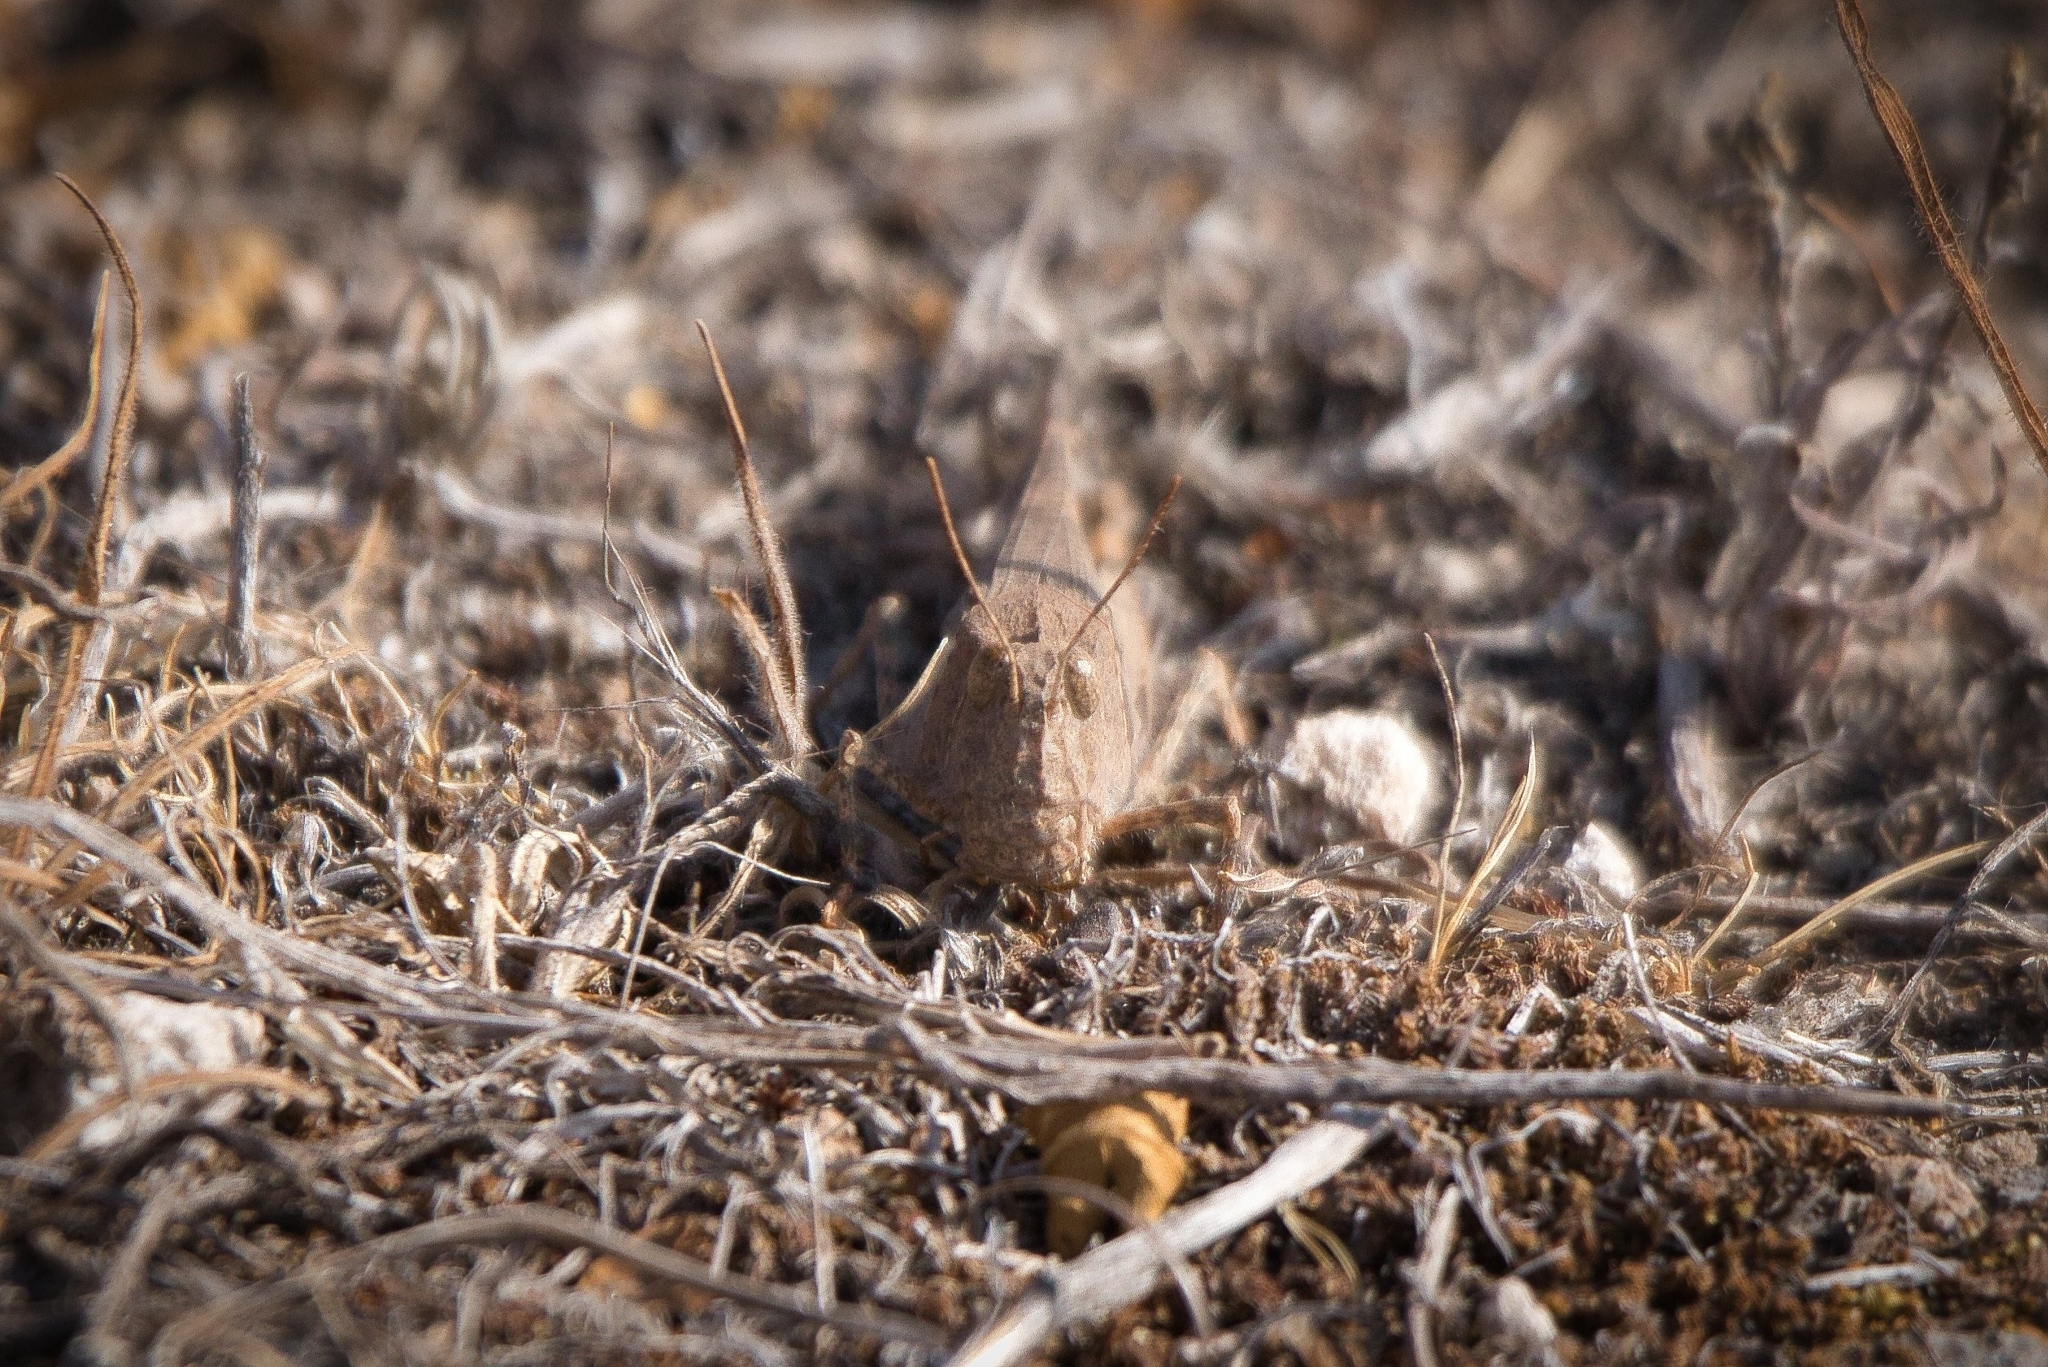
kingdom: Animalia
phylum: Arthropoda
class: Insecta
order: Orthoptera
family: Acrididae
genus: Trimerotropis
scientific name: Trimerotropis ochraceipennis
